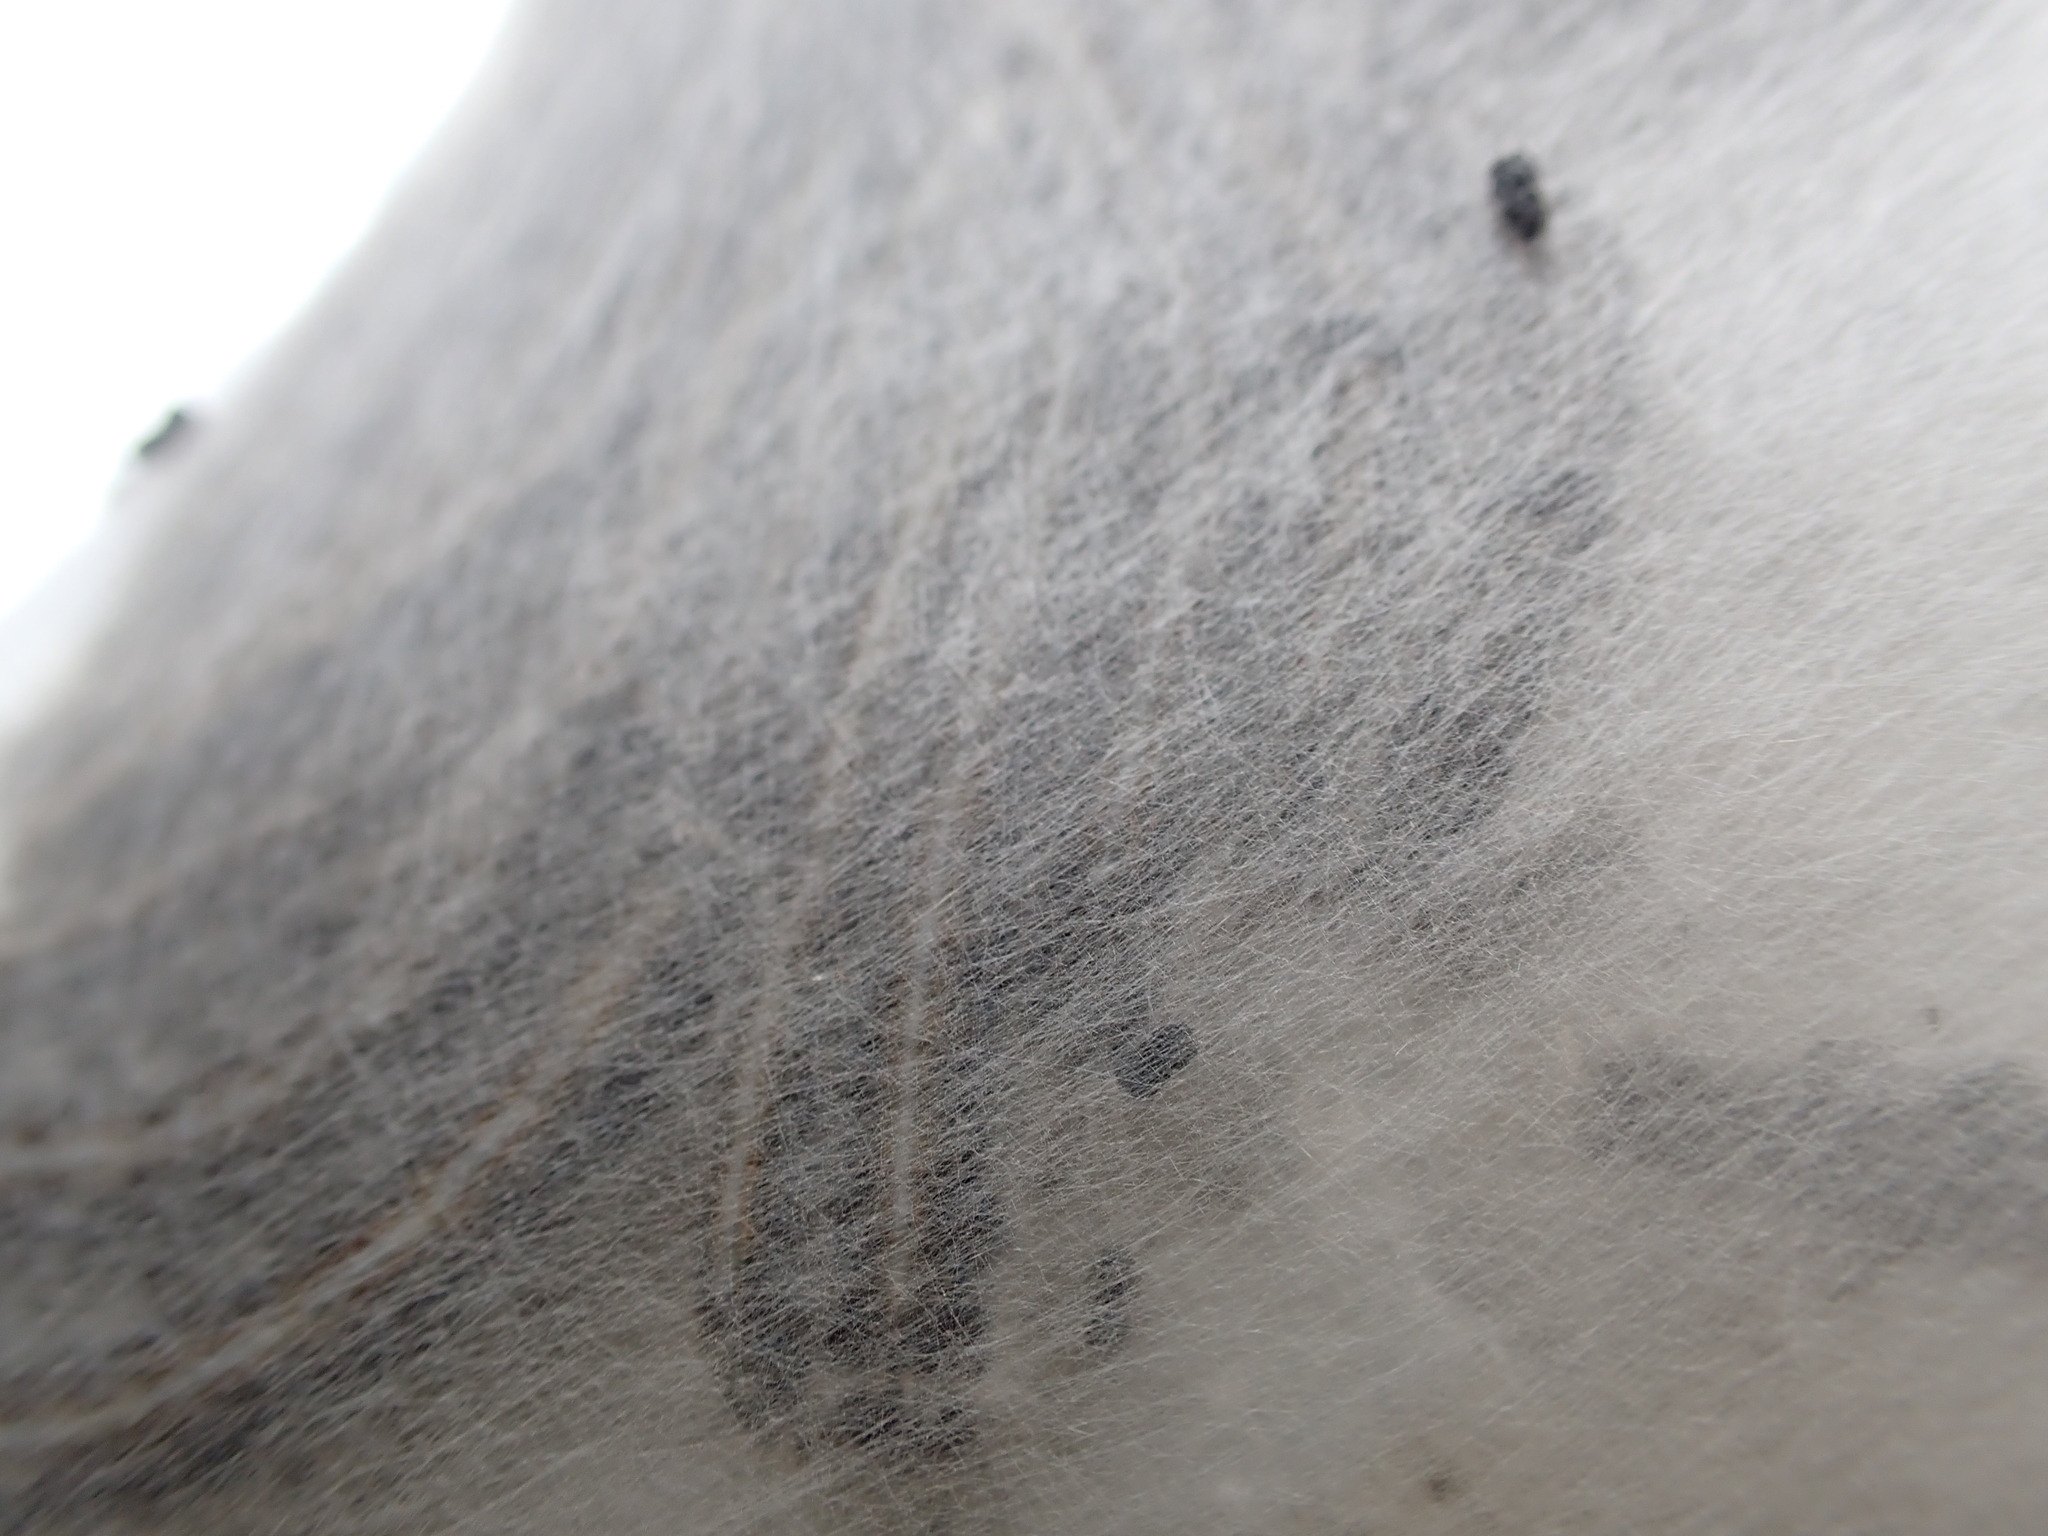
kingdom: Animalia
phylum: Arthropoda
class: Insecta
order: Lepidoptera
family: Lasiocampidae
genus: Malacosoma
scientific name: Malacosoma americana
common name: Eastern tent caterpillar moth
